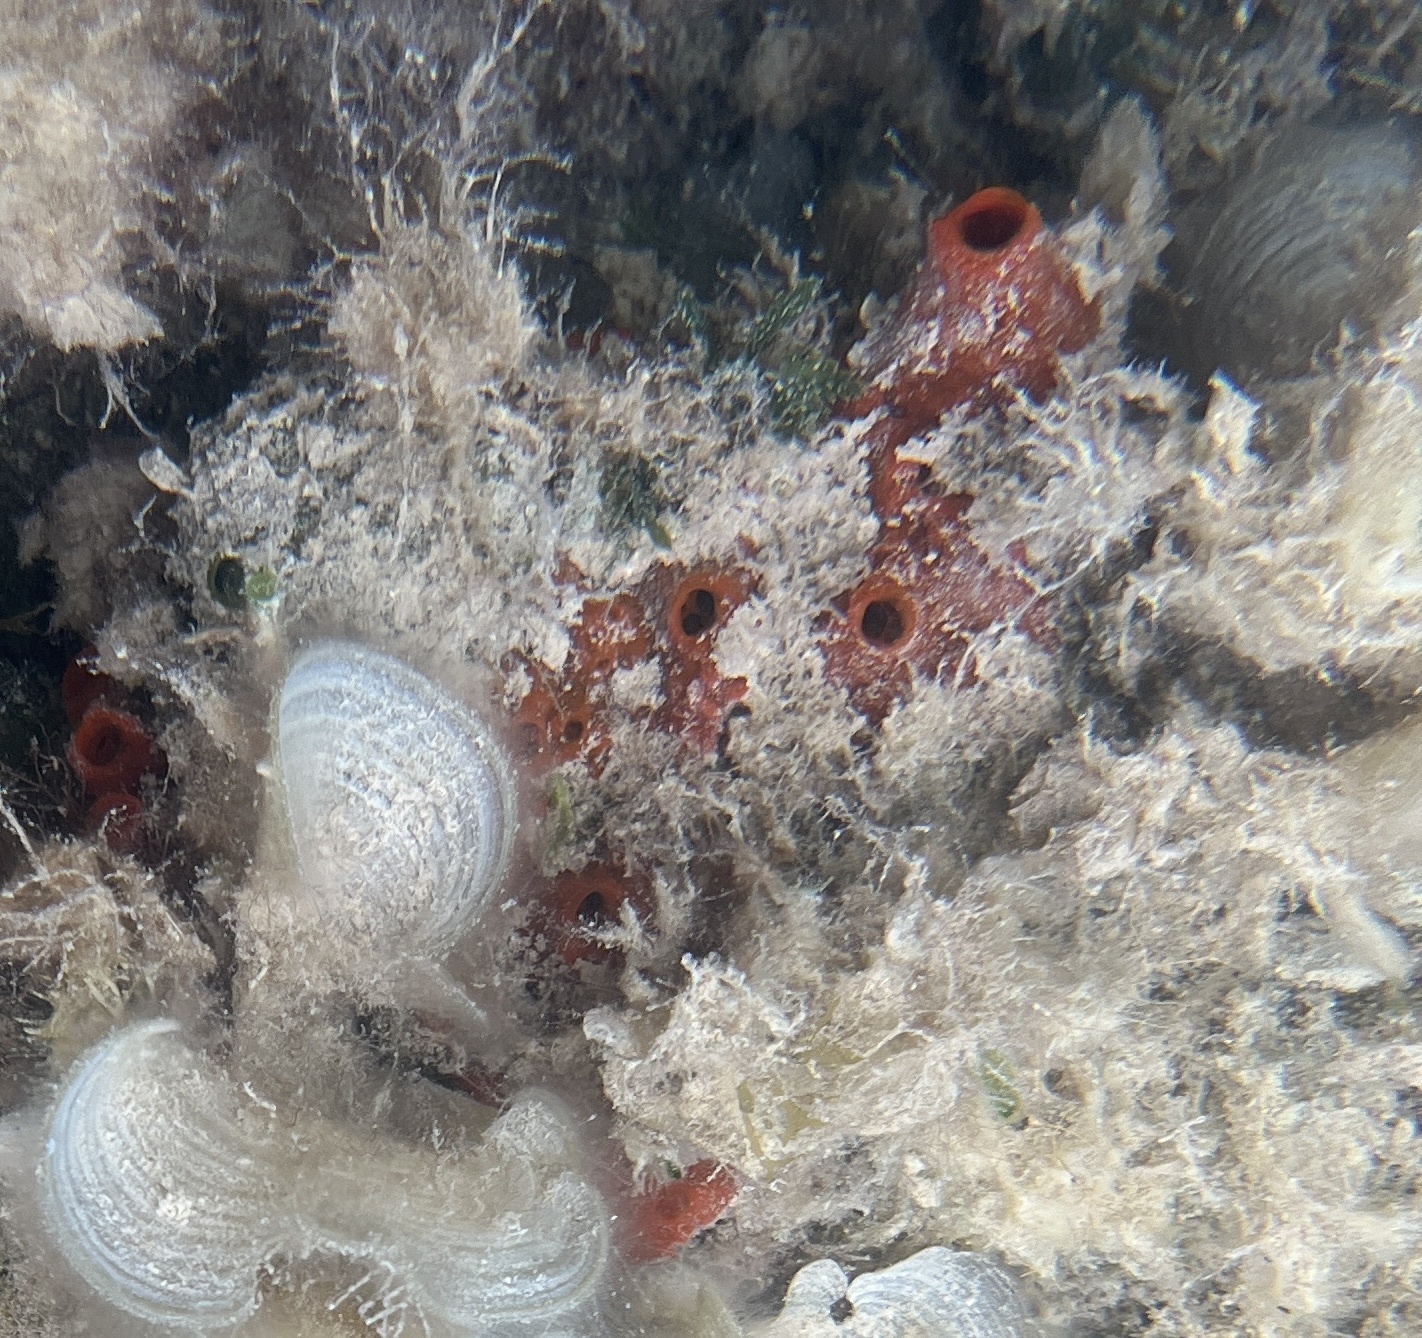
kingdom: Animalia
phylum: Porifera
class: Demospongiae
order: Poecilosclerida
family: Tedaniidae
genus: Tedania
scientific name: Tedania ignis
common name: Sponge
